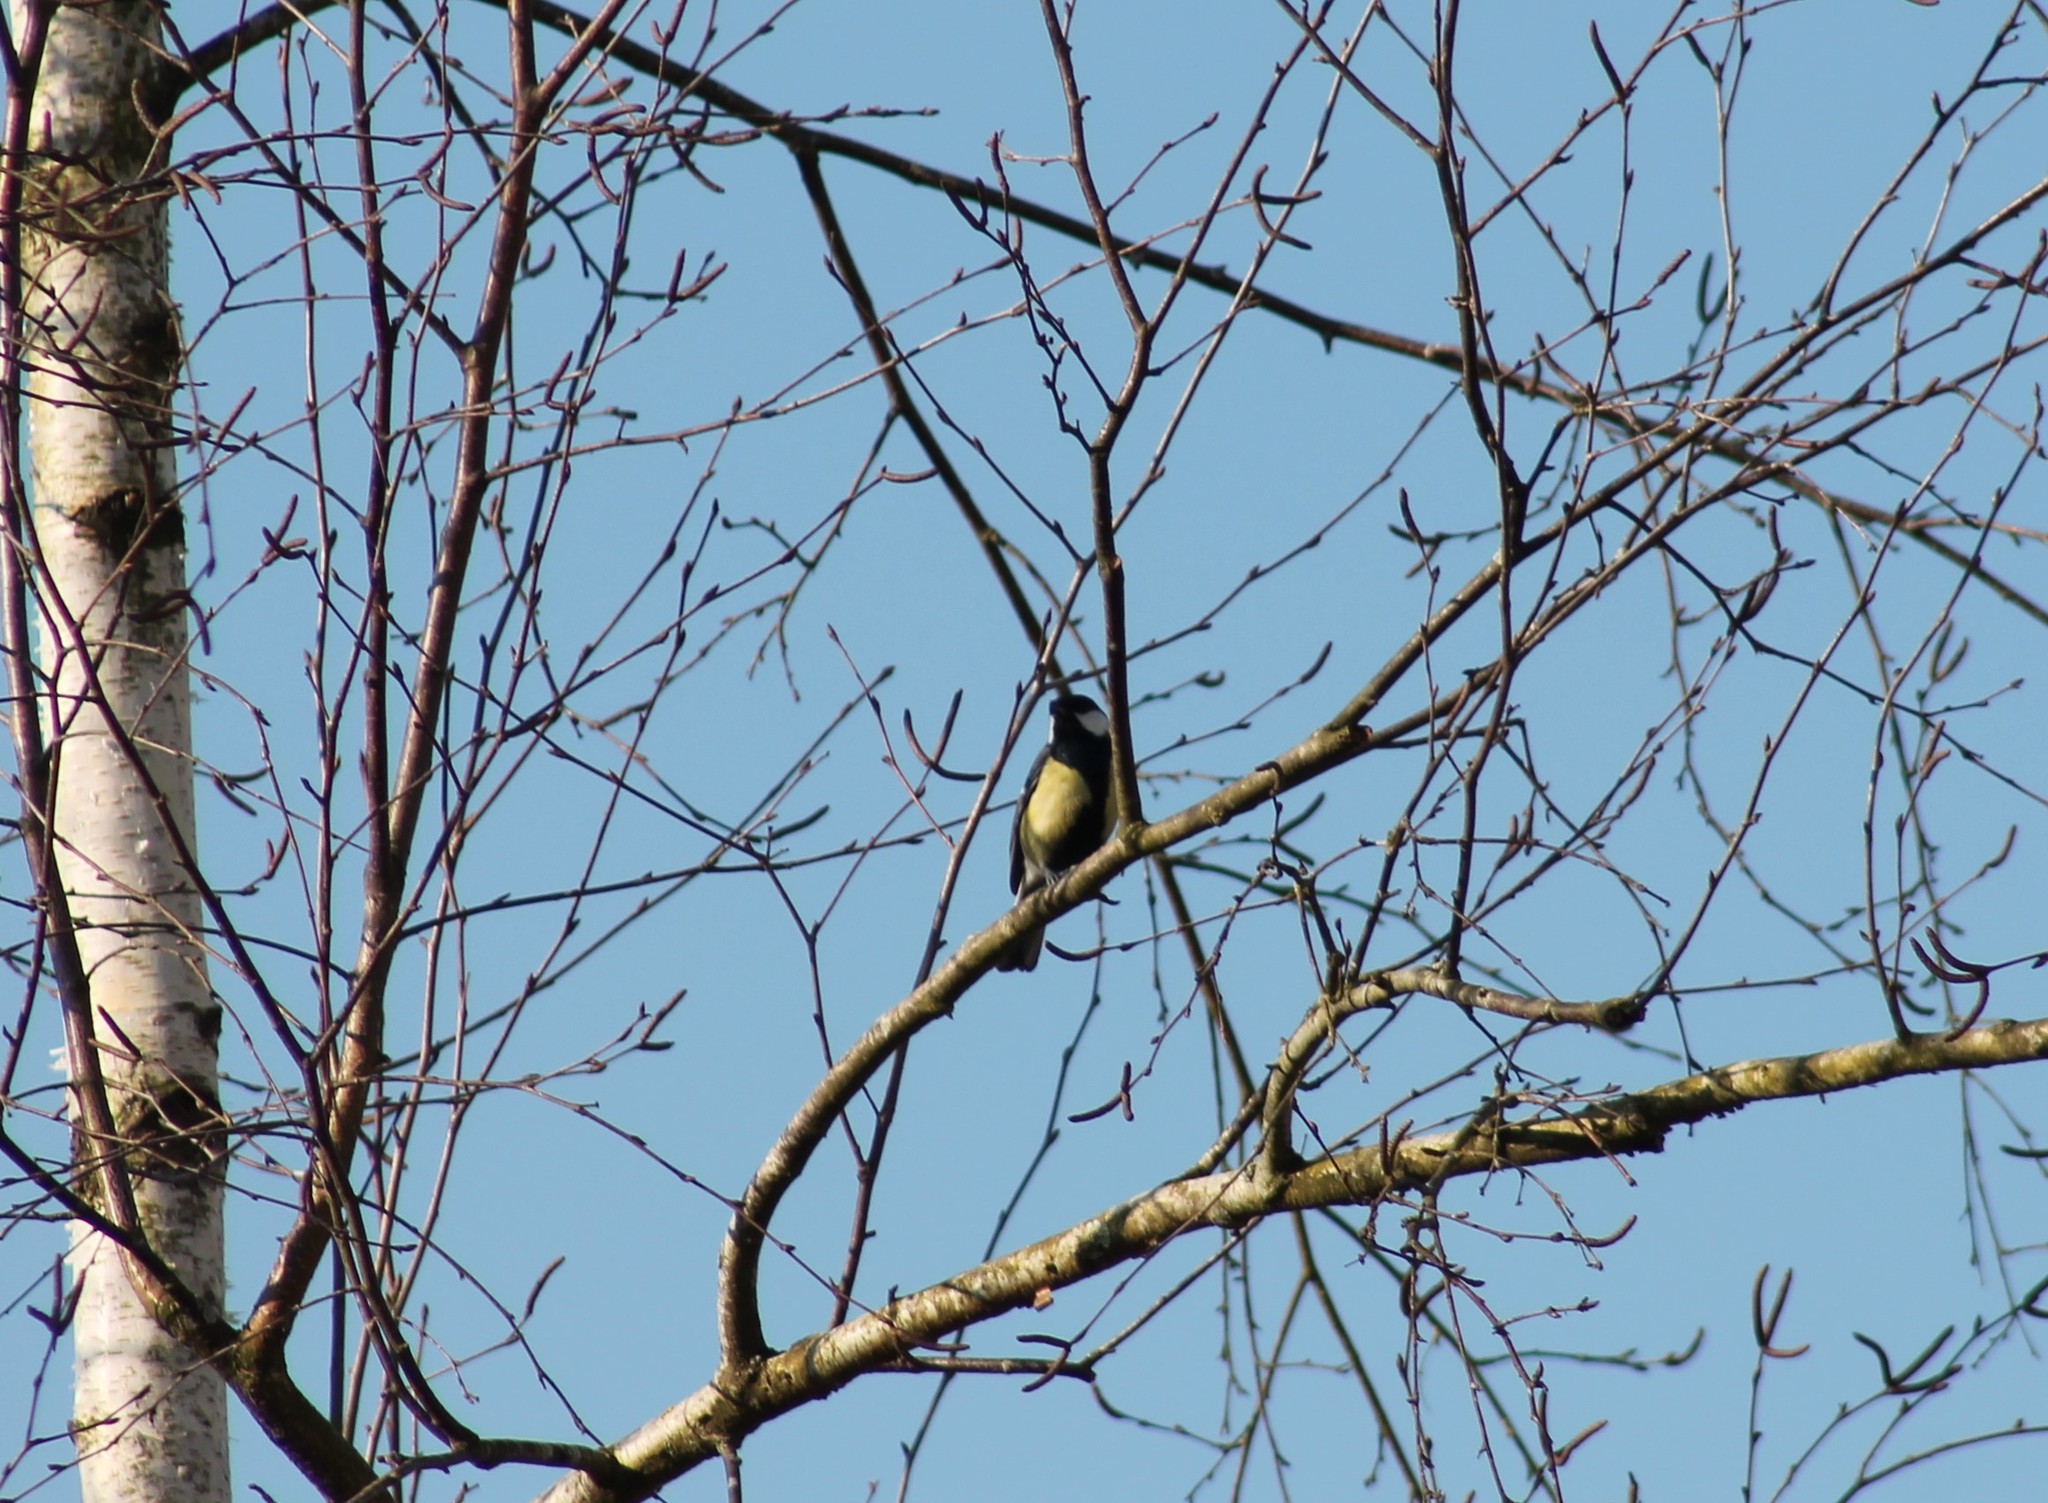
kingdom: Animalia
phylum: Chordata
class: Aves
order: Passeriformes
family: Paridae
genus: Parus
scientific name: Parus major
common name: Great tit
